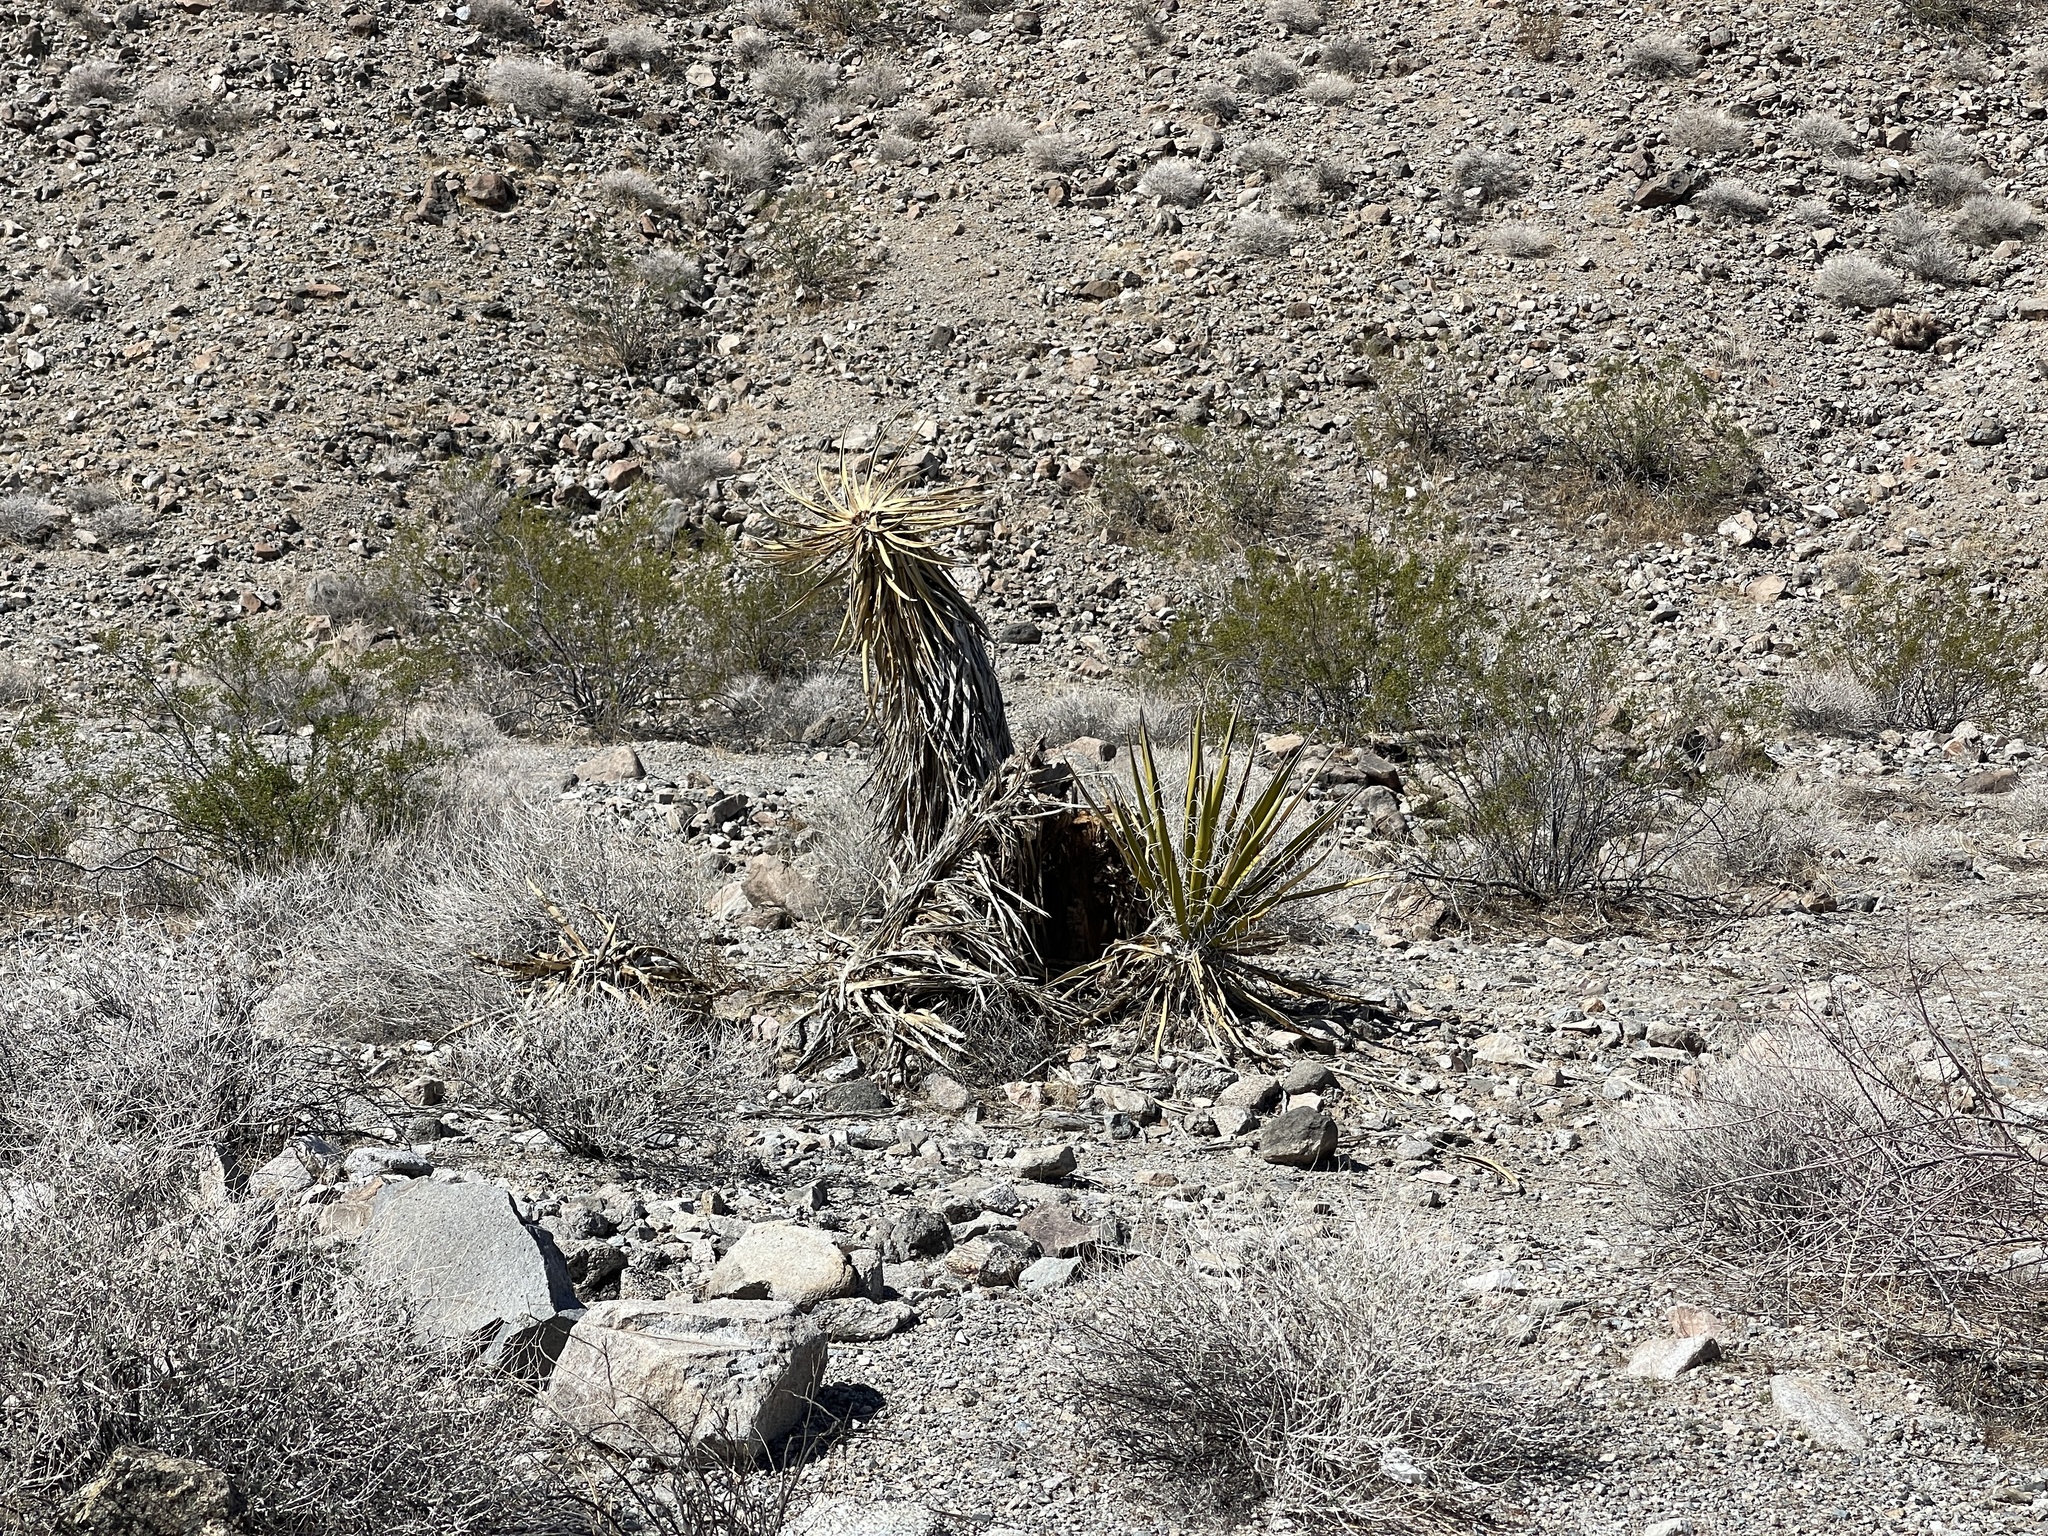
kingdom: Plantae
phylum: Tracheophyta
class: Liliopsida
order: Asparagales
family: Asparagaceae
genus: Yucca
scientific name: Yucca schidigera
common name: Mojave yucca
